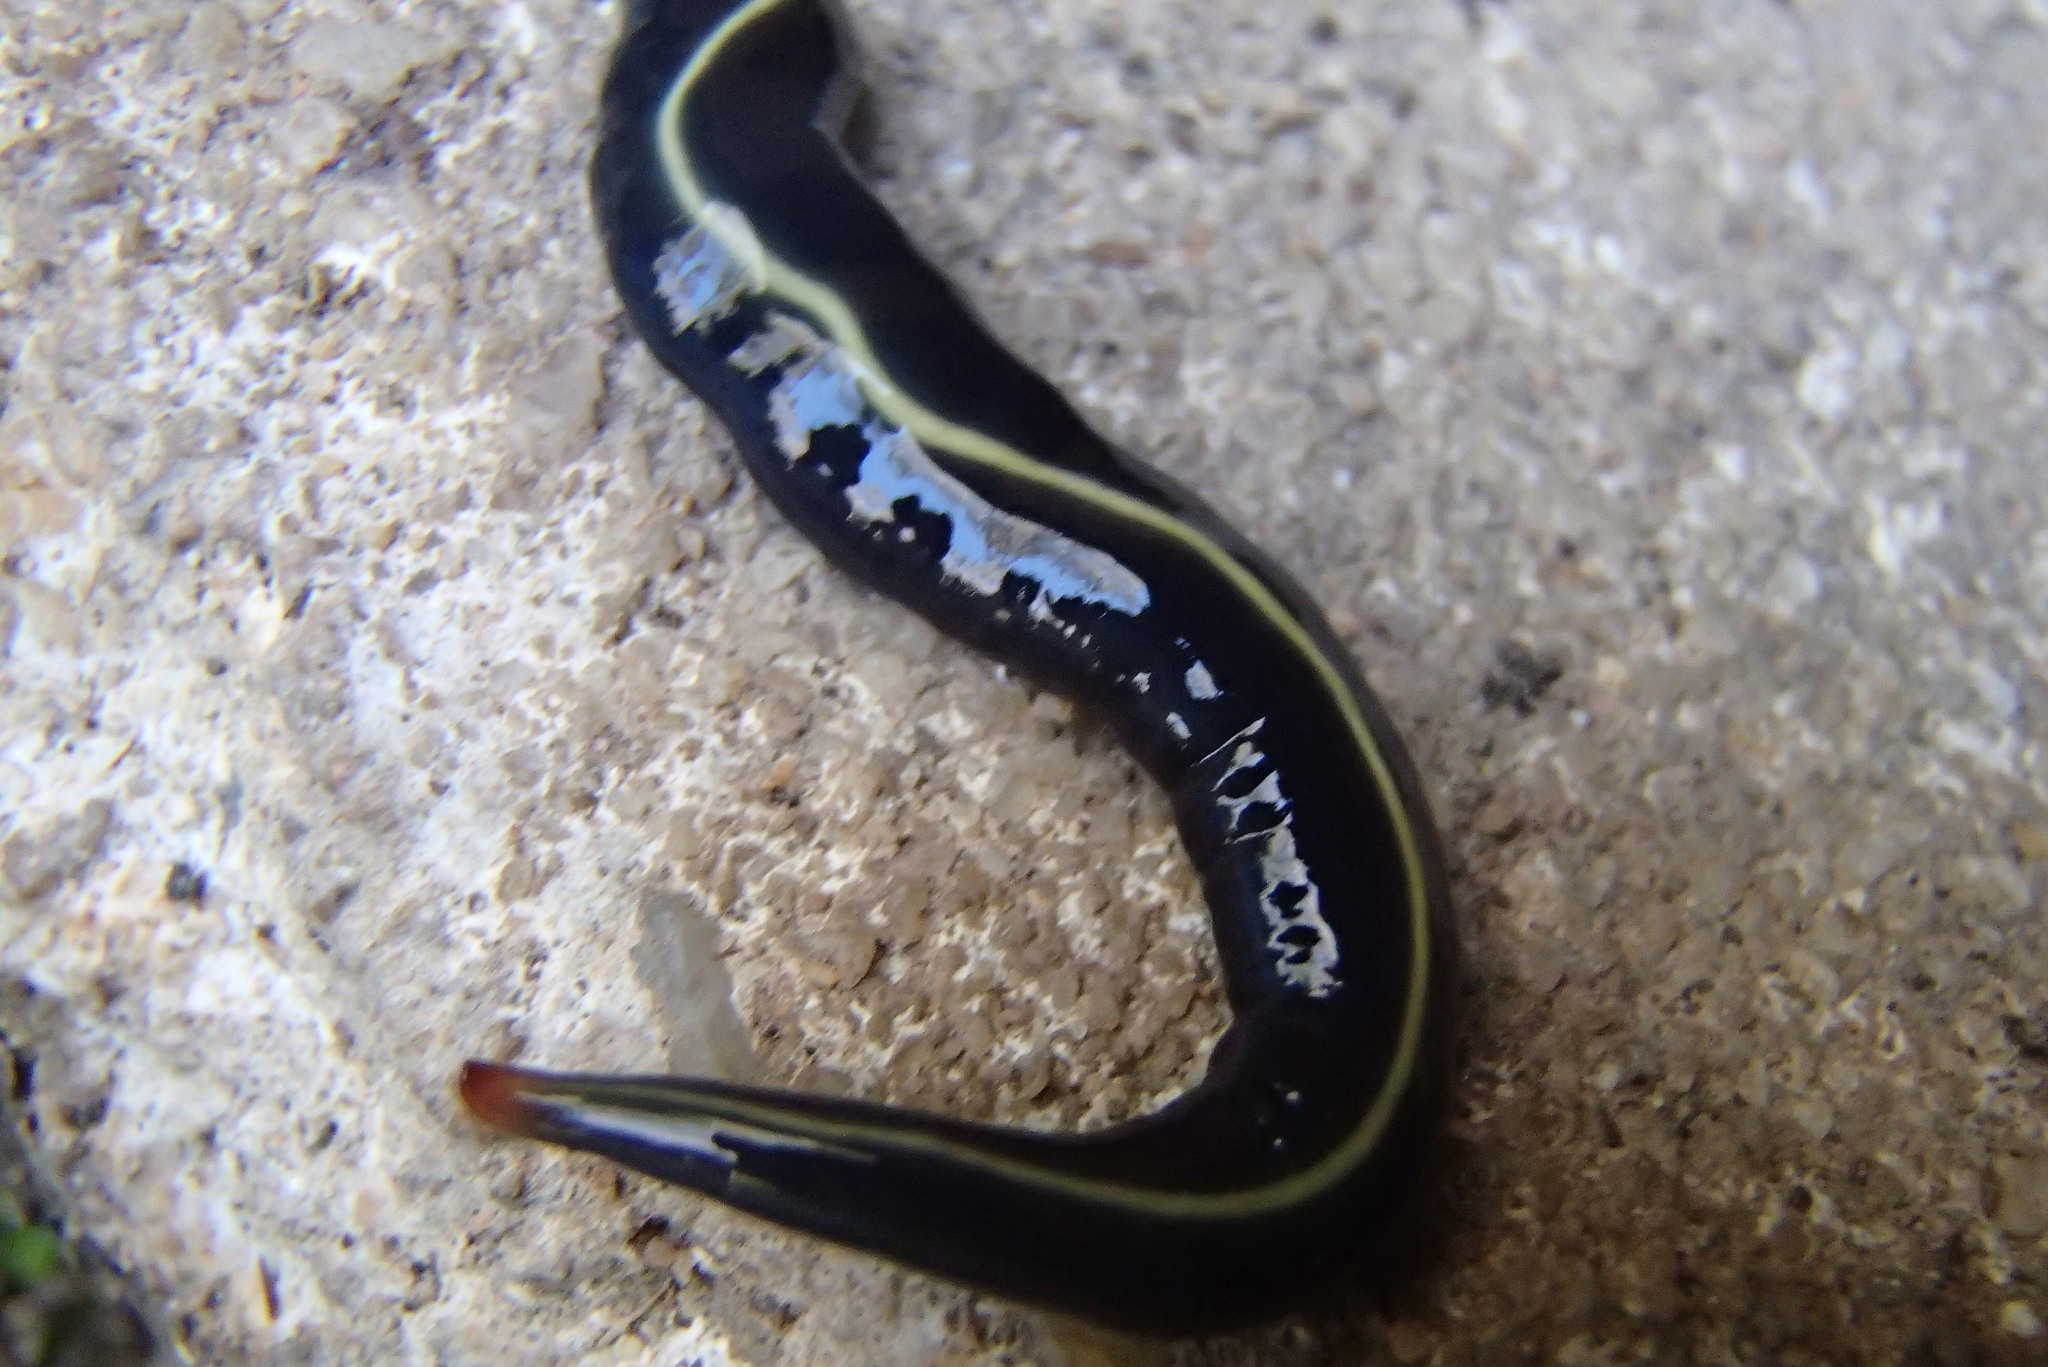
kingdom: Animalia
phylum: Platyhelminthes
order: Tricladida
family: Geoplanidae
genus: Caenoplana
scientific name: Caenoplana coerulea
